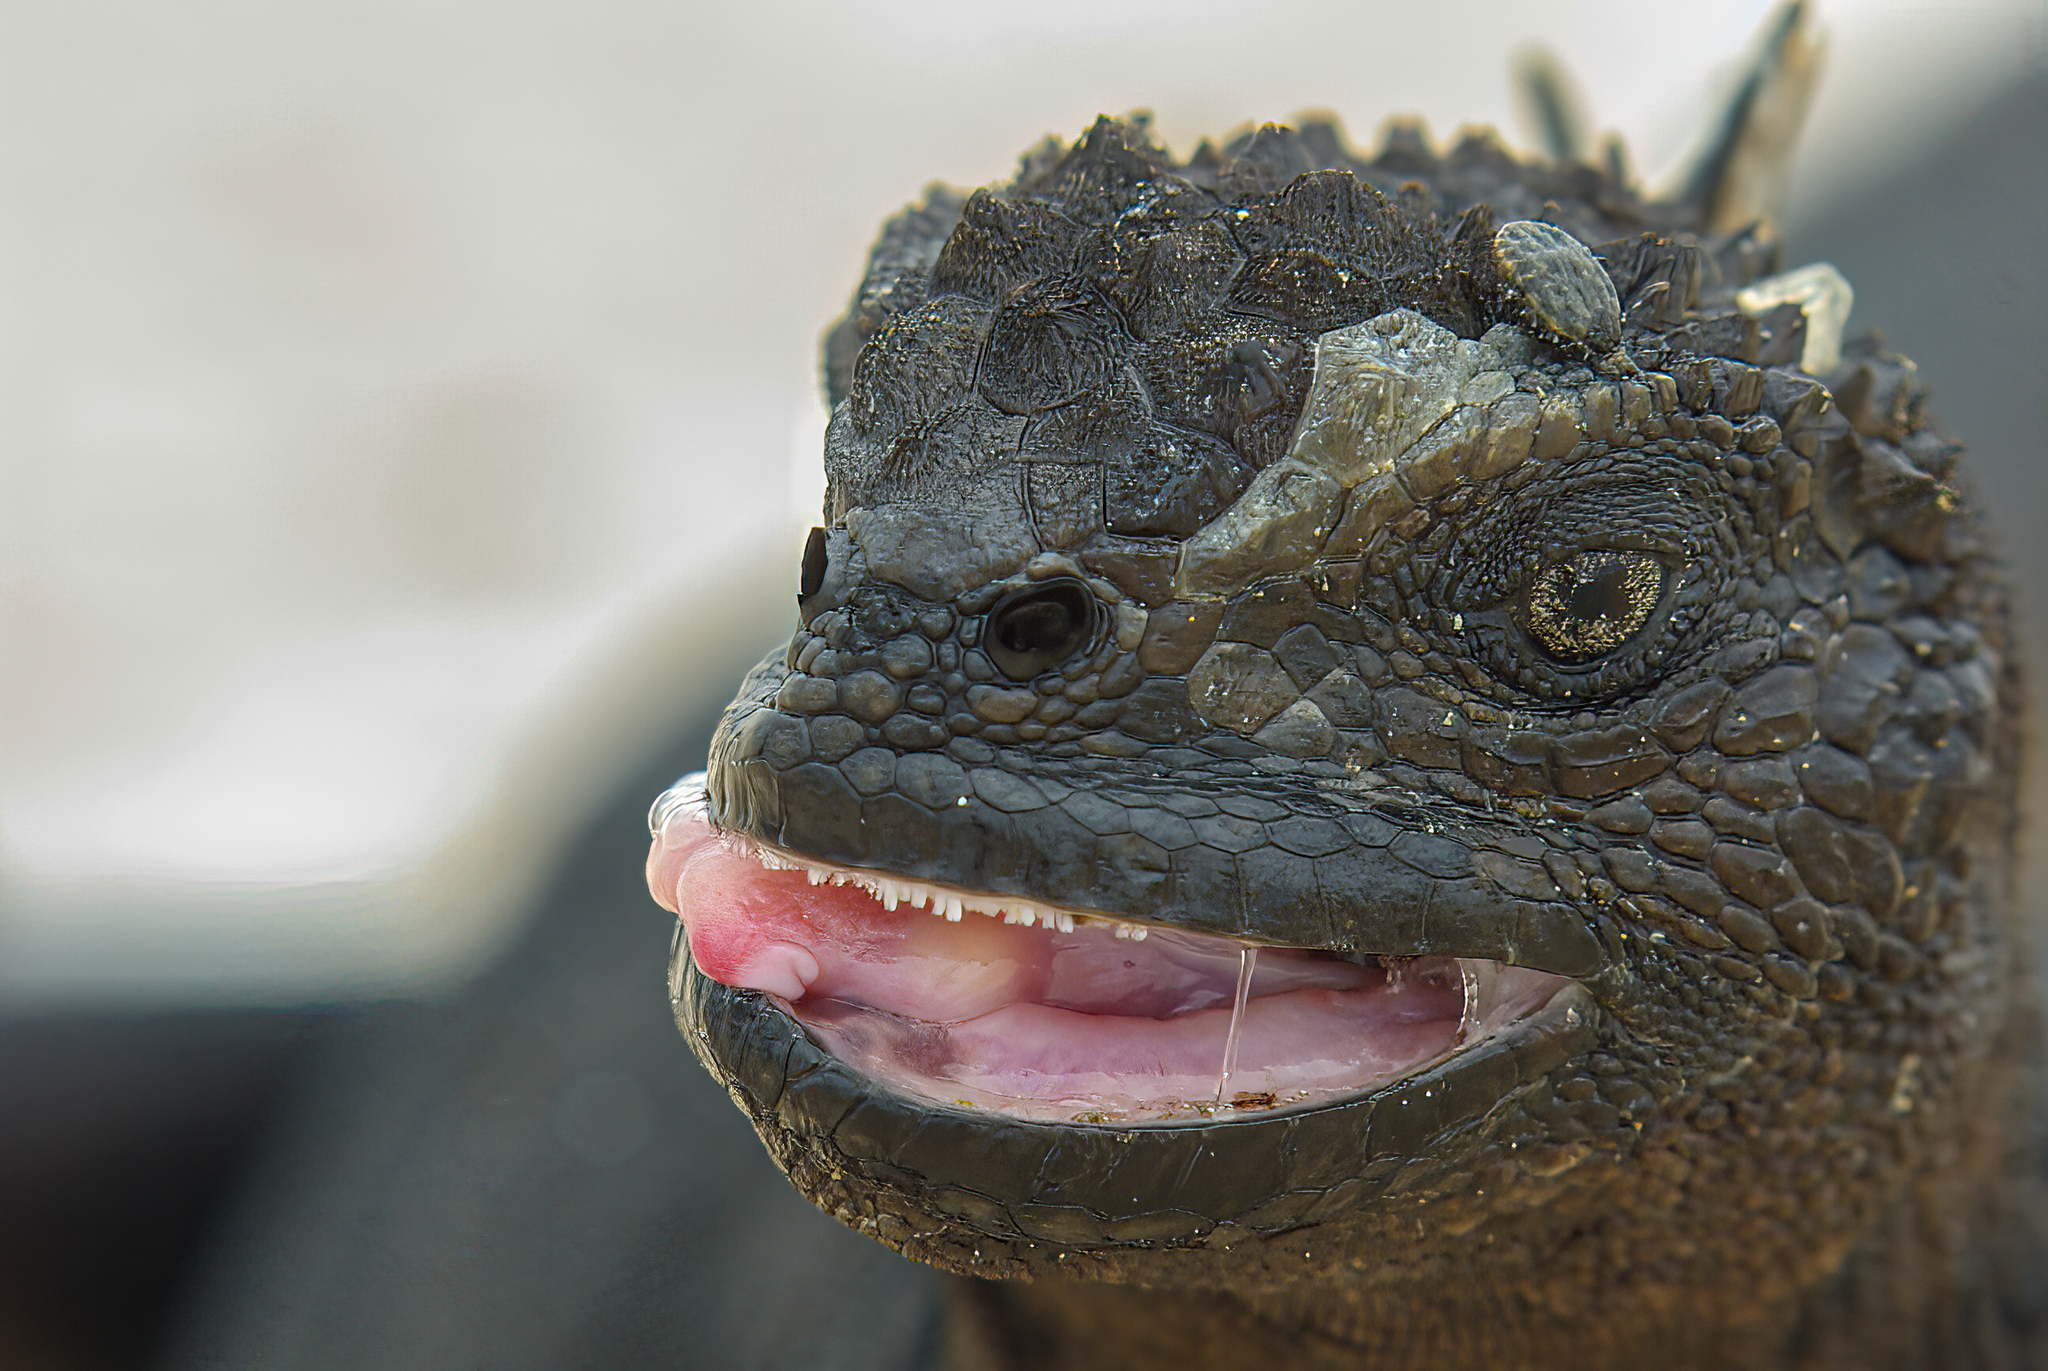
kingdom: Animalia
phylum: Chordata
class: Squamata
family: Iguanidae
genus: Amblyrhynchus
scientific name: Amblyrhynchus cristatus
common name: Marine iguana
